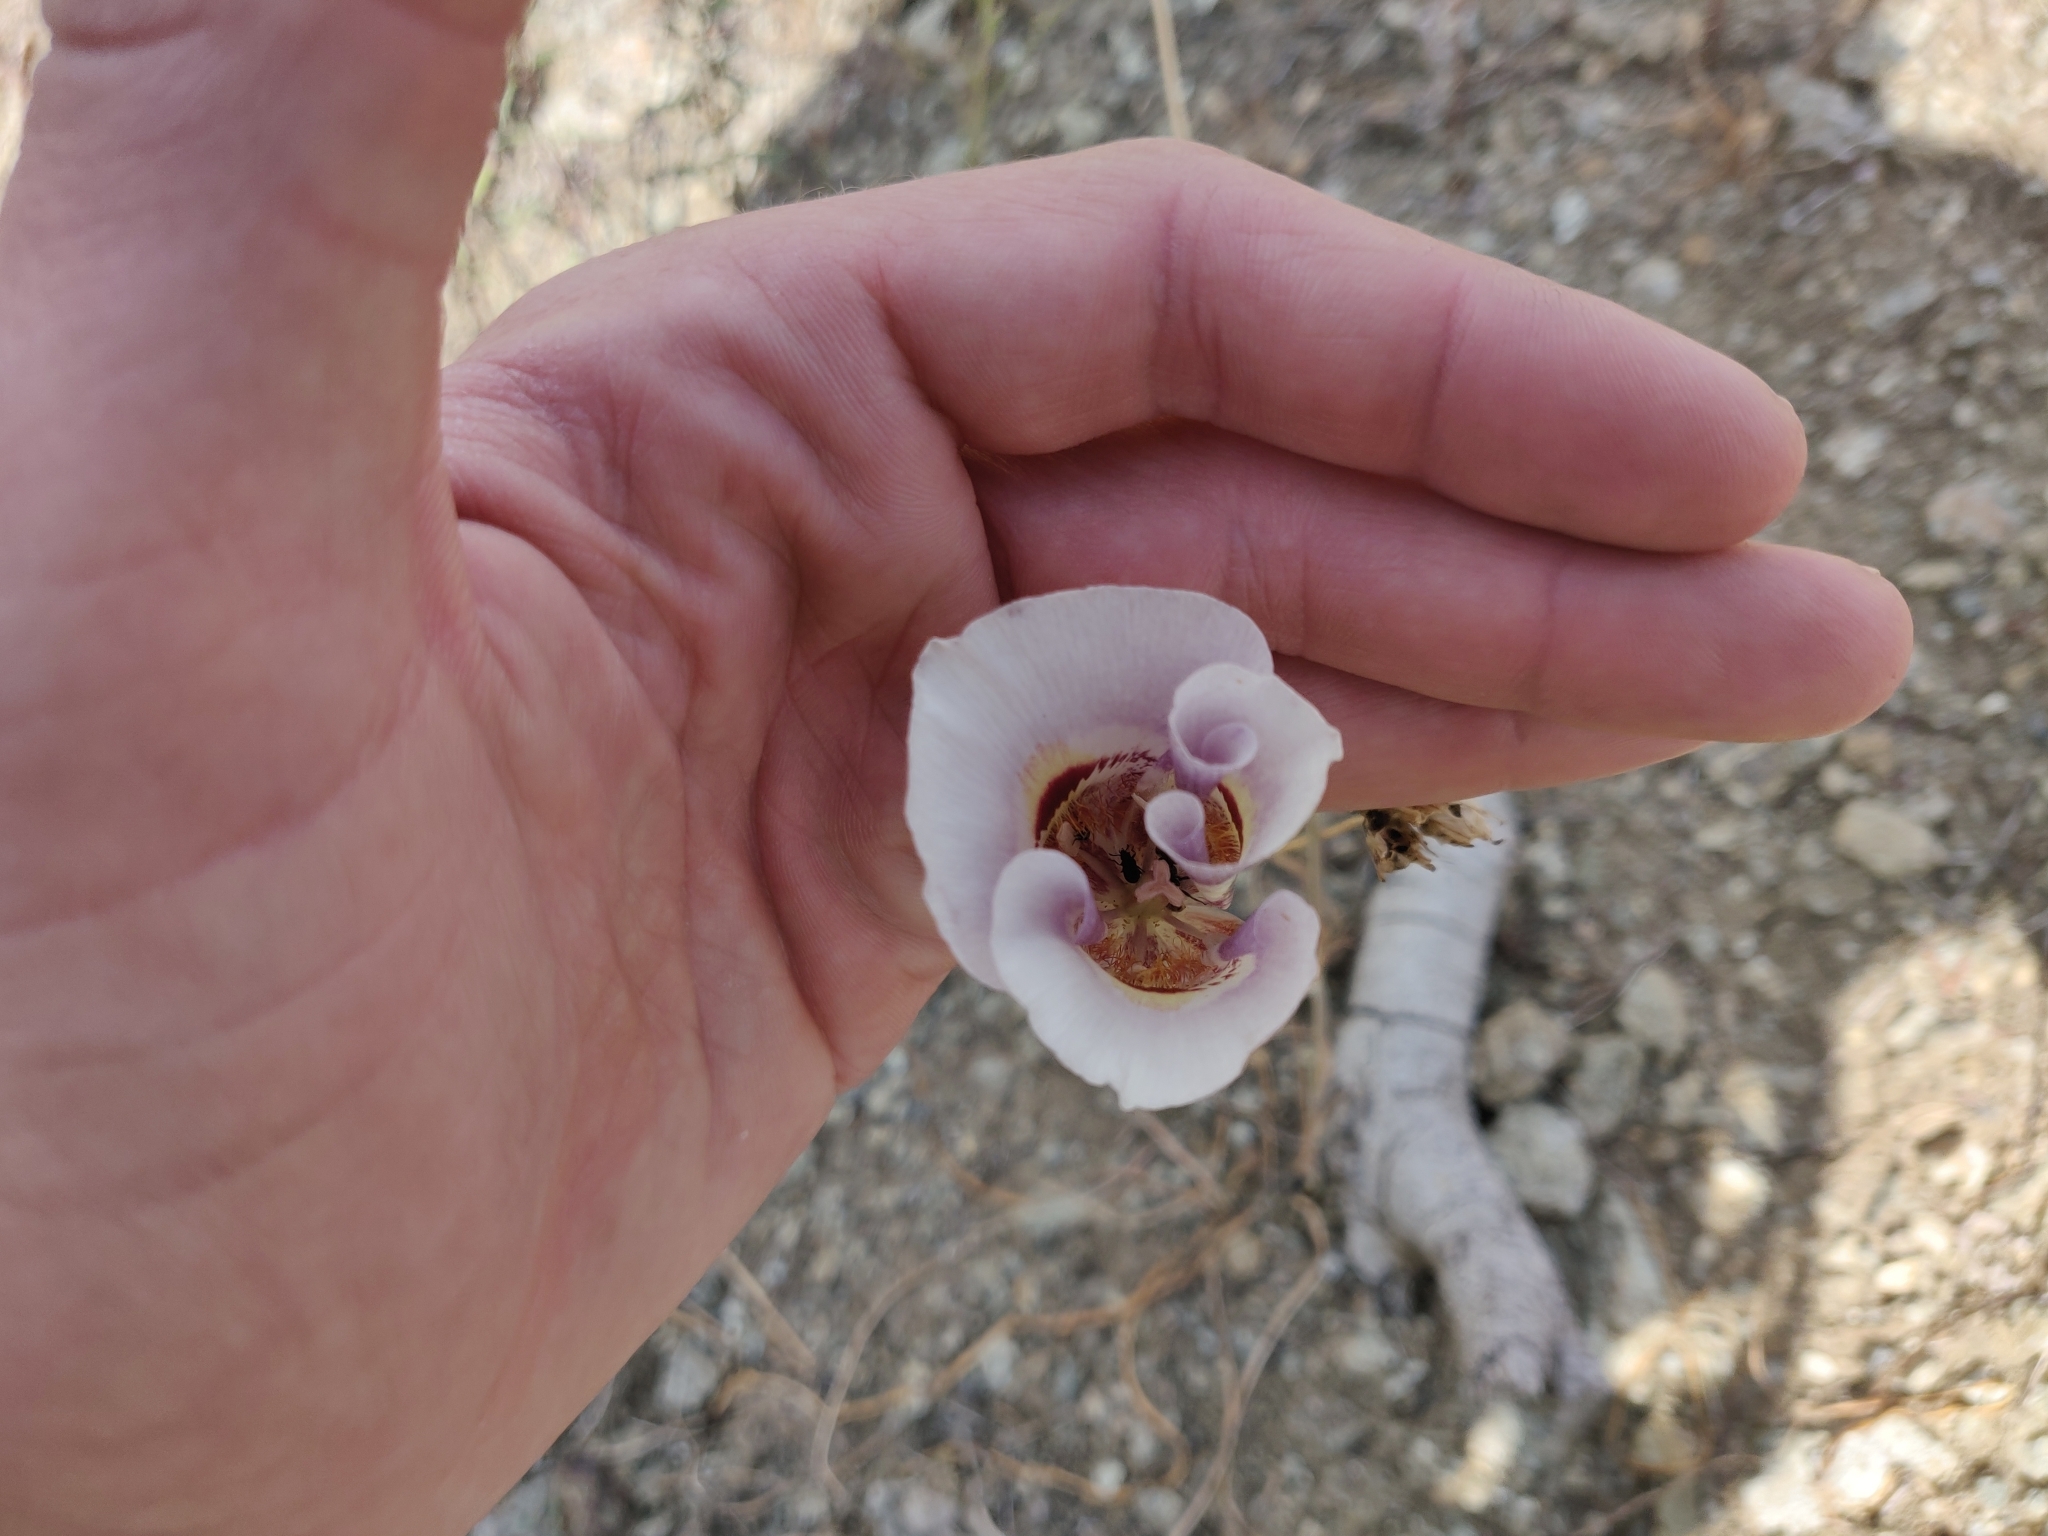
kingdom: Plantae
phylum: Tracheophyta
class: Liliopsida
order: Liliales
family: Liliaceae
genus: Calochortus
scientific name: Calochortus argillosus
